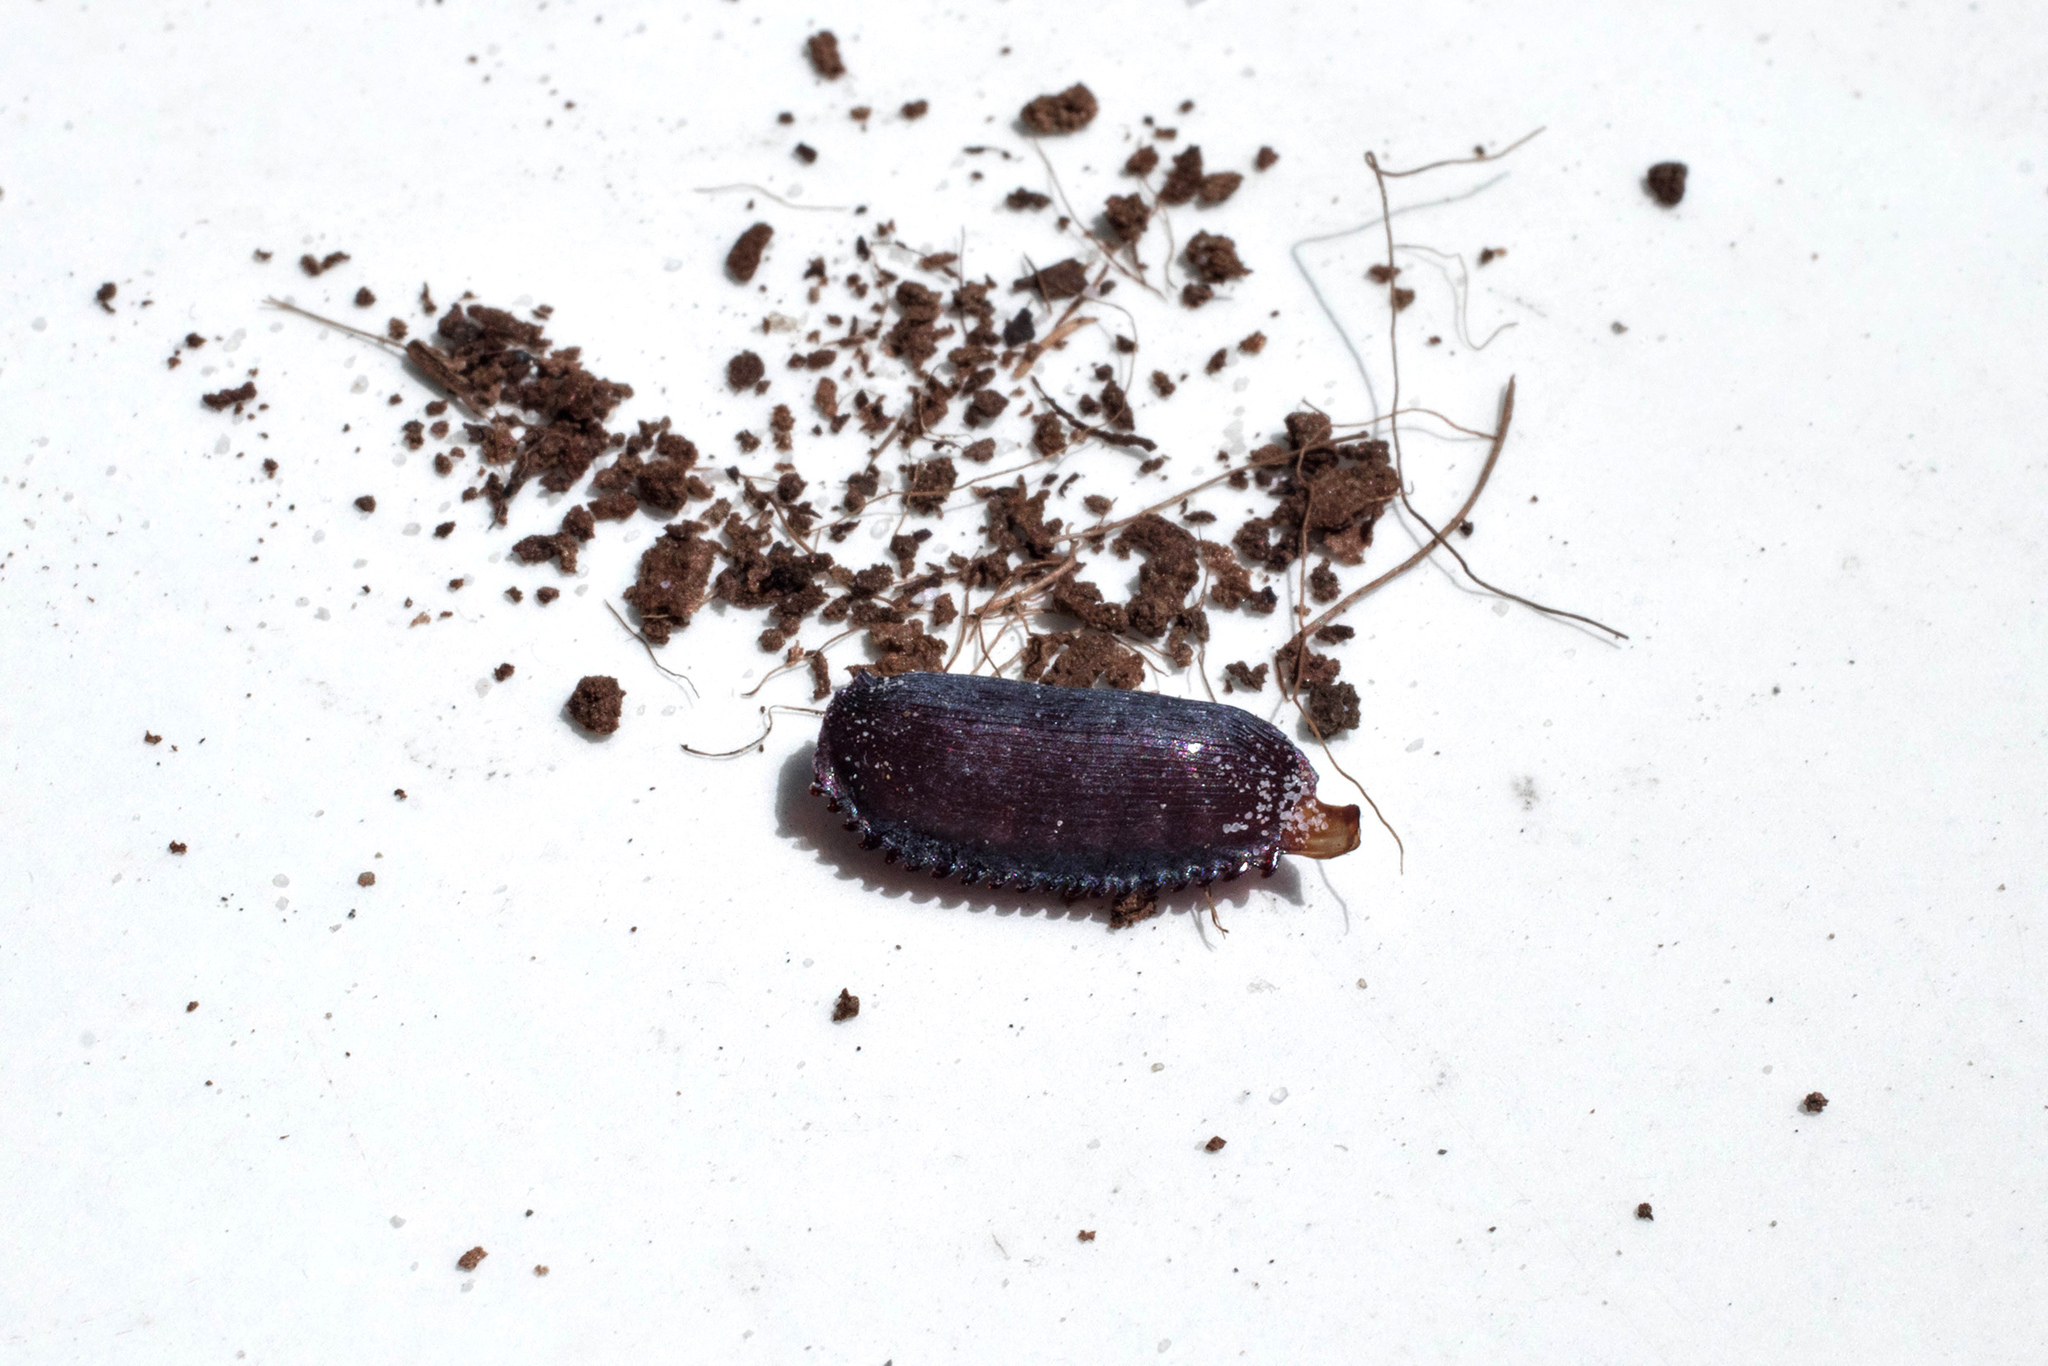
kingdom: Animalia
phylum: Arthropoda
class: Insecta
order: Blattodea
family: Corydiidae
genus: Polyphaga
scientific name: Polyphaga aegyptiaca
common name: Egyptian cockroach
